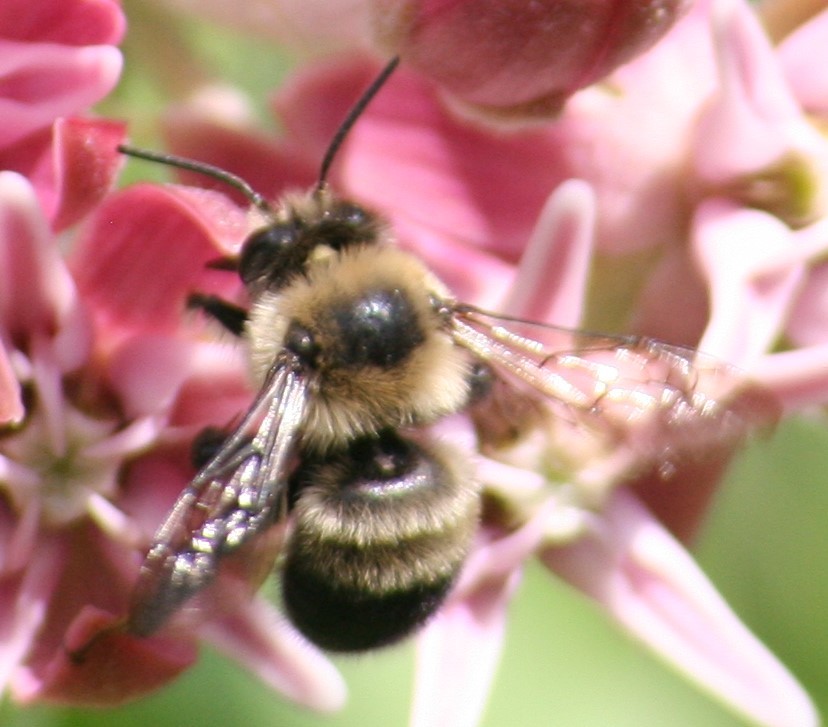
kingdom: Animalia
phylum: Arthropoda
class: Insecta
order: Hymenoptera
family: Apidae
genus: Anthophora
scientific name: Anthophora bomboides
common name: Bumble-bee-mimic digger bee
